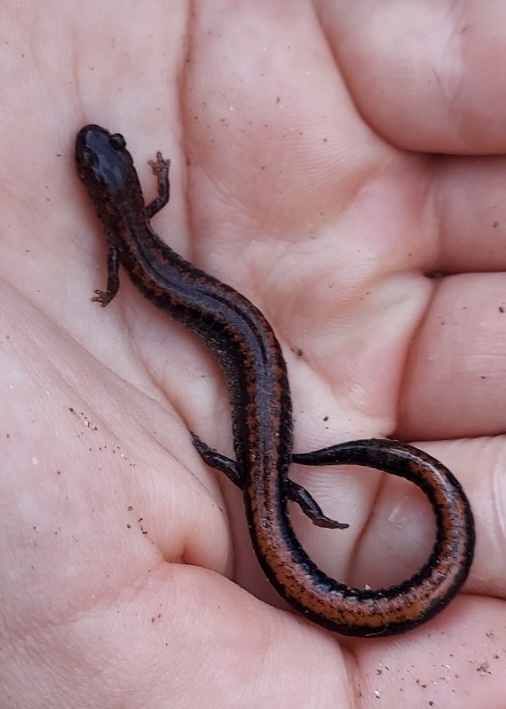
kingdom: Animalia
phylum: Chordata
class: Amphibia
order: Caudata
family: Plethodontidae
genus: Plethodon
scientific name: Plethodon cinereus
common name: Redback salamander
